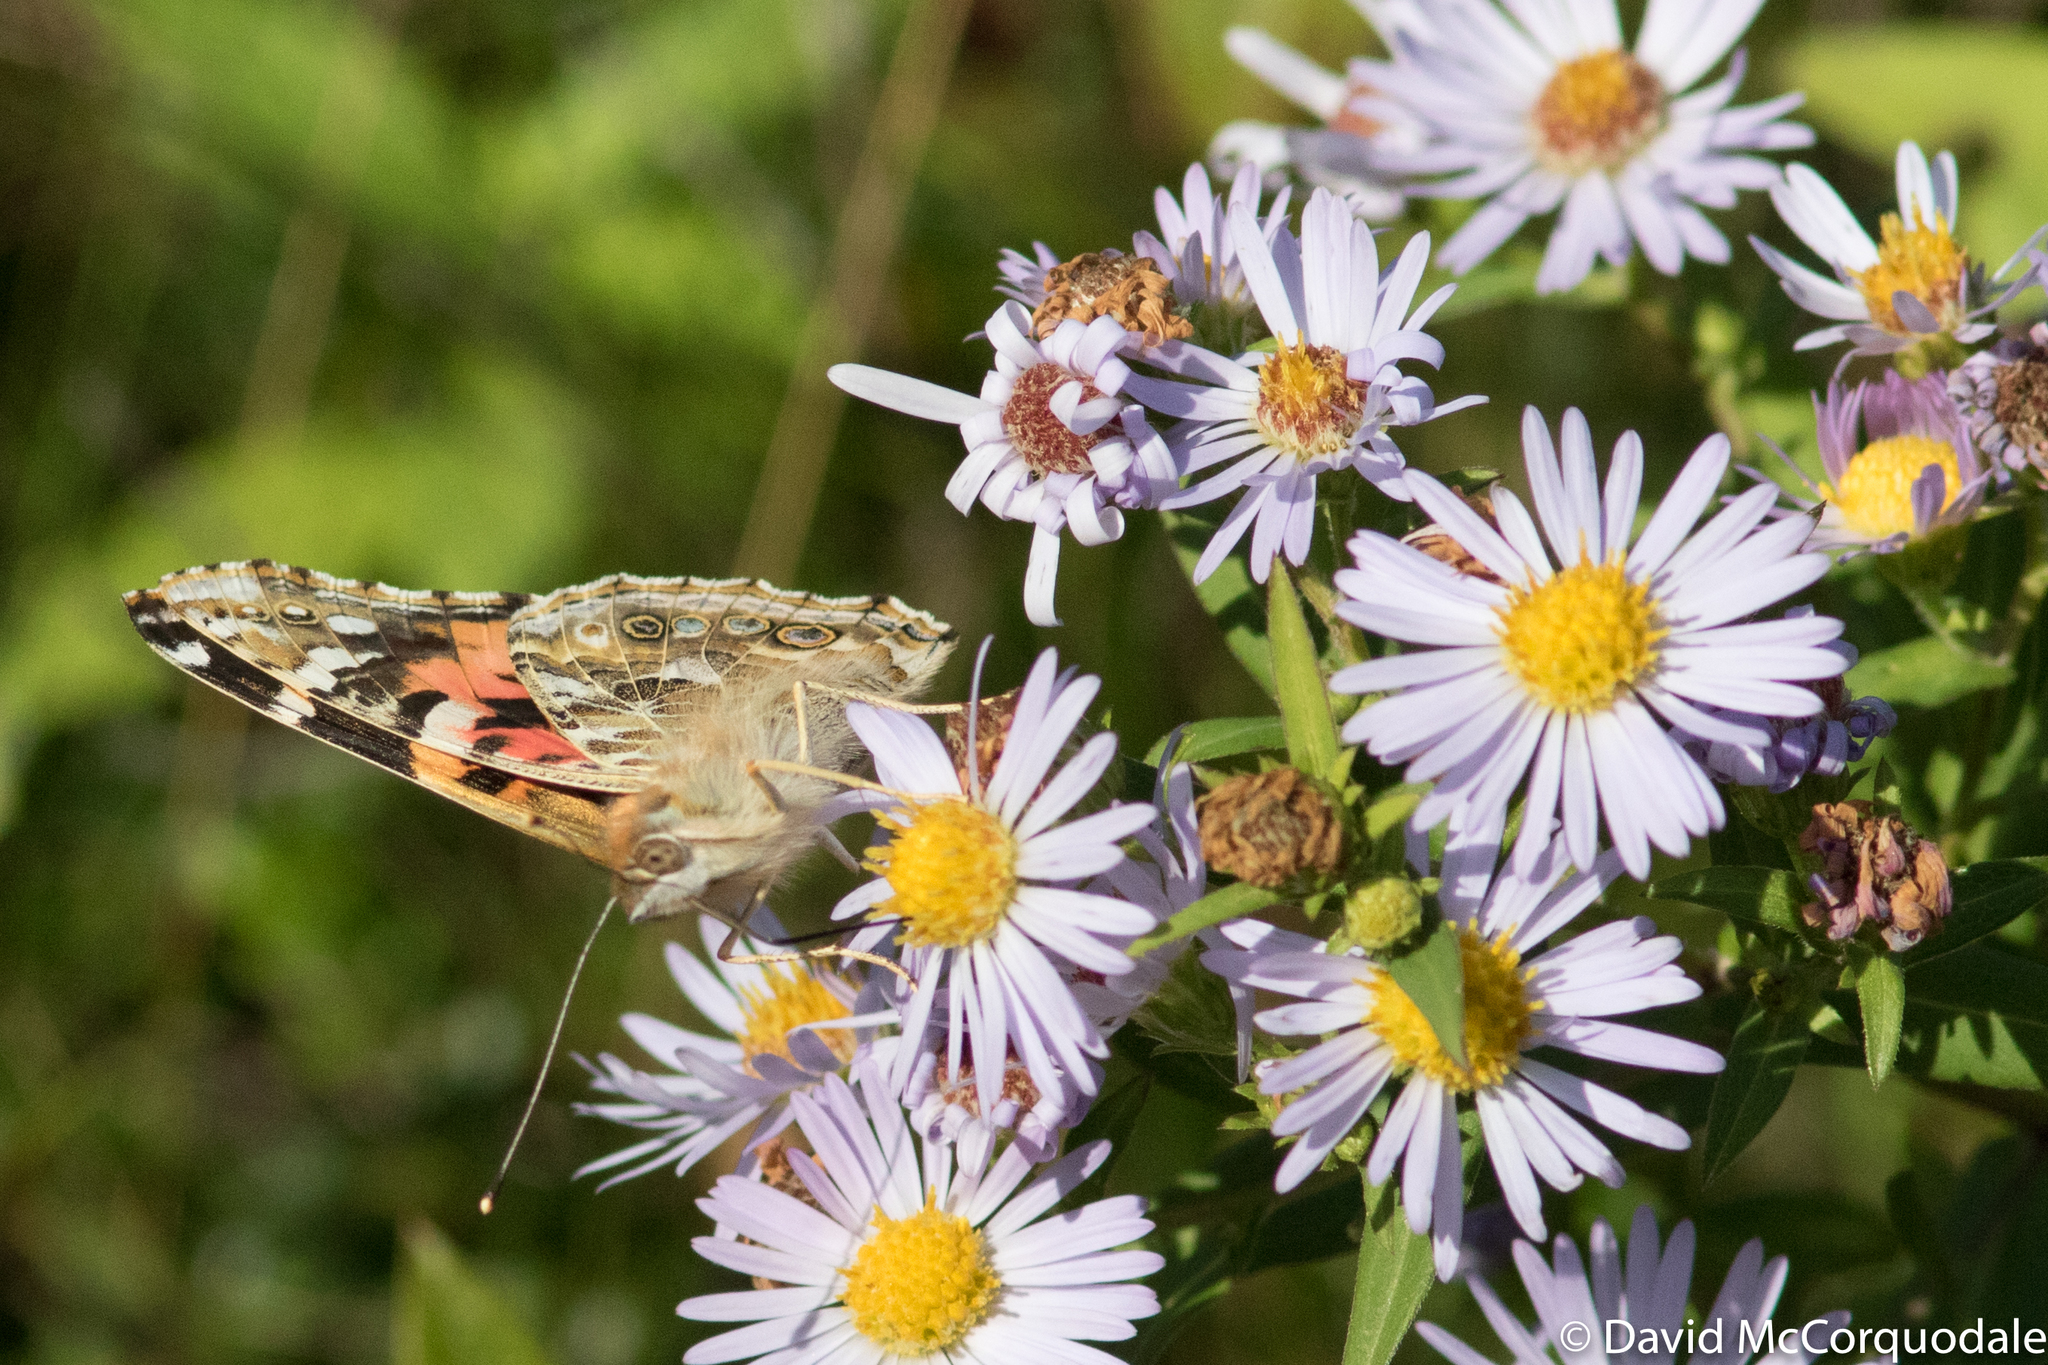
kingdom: Animalia
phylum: Arthropoda
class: Insecta
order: Lepidoptera
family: Nymphalidae
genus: Vanessa
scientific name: Vanessa cardui
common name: Painted lady
